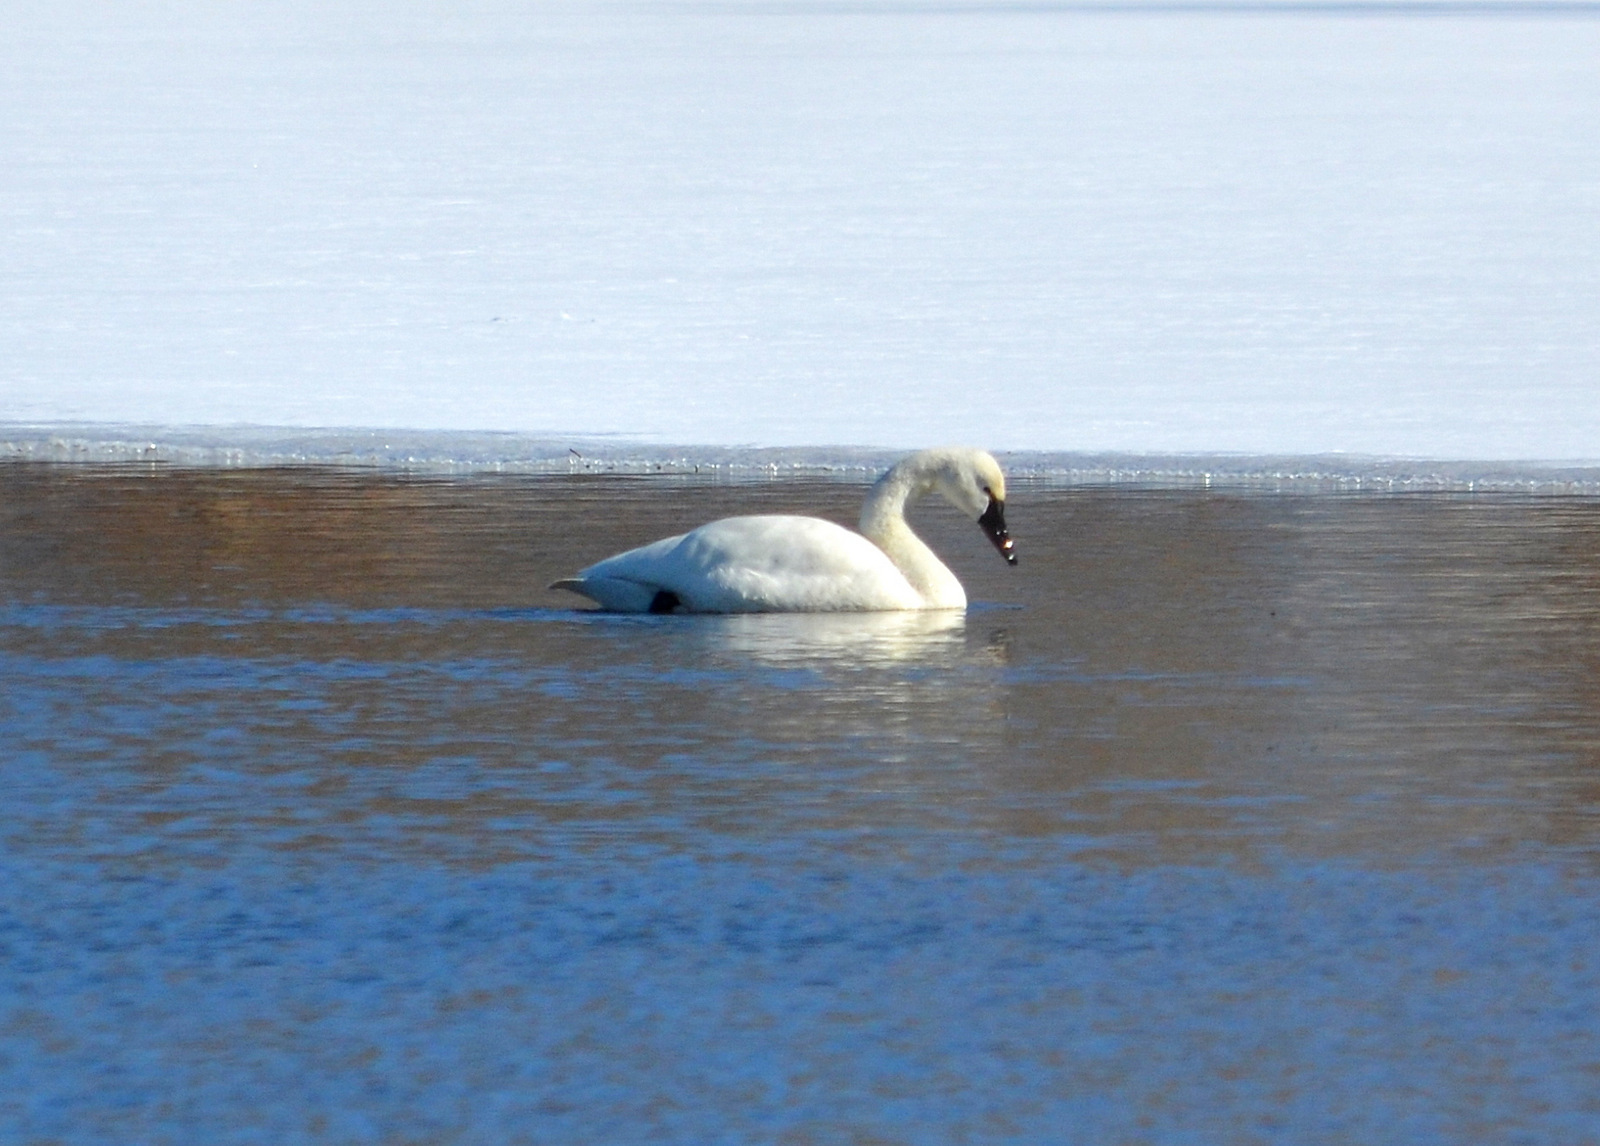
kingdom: Animalia
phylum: Chordata
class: Aves
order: Anseriformes
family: Anatidae
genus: Cygnus
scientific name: Cygnus columbianus
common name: Tundra swan
